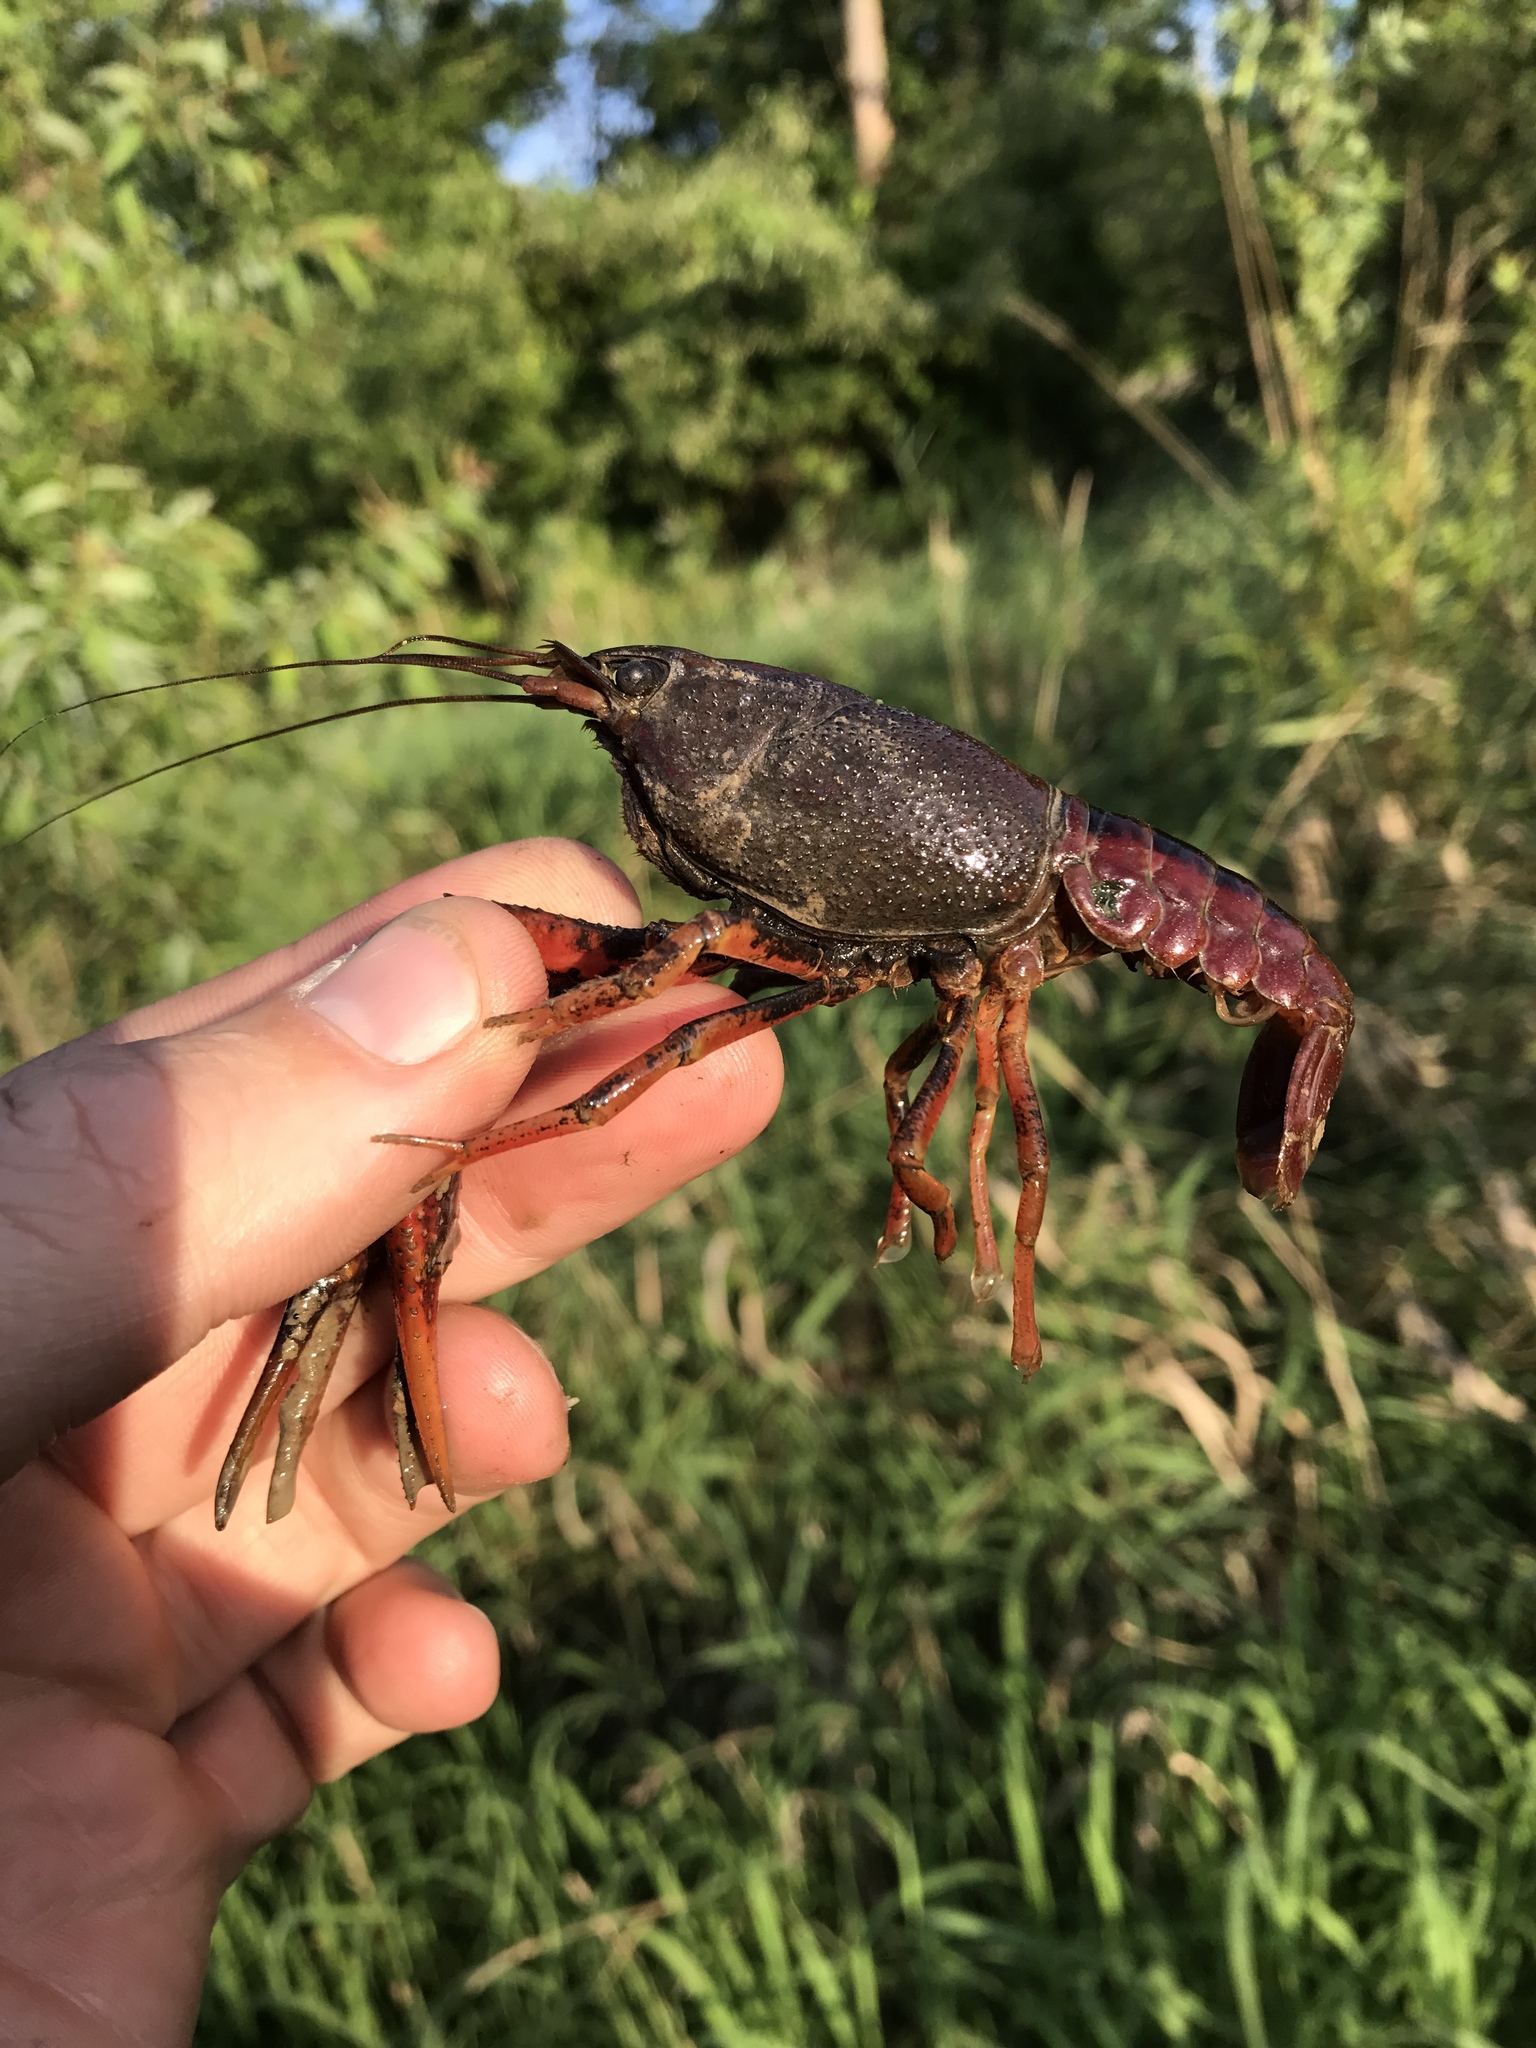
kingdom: Animalia
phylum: Arthropoda
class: Malacostraca
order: Decapoda
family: Cambaridae
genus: Procambarus
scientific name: Procambarus acutus
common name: White river crayfish
